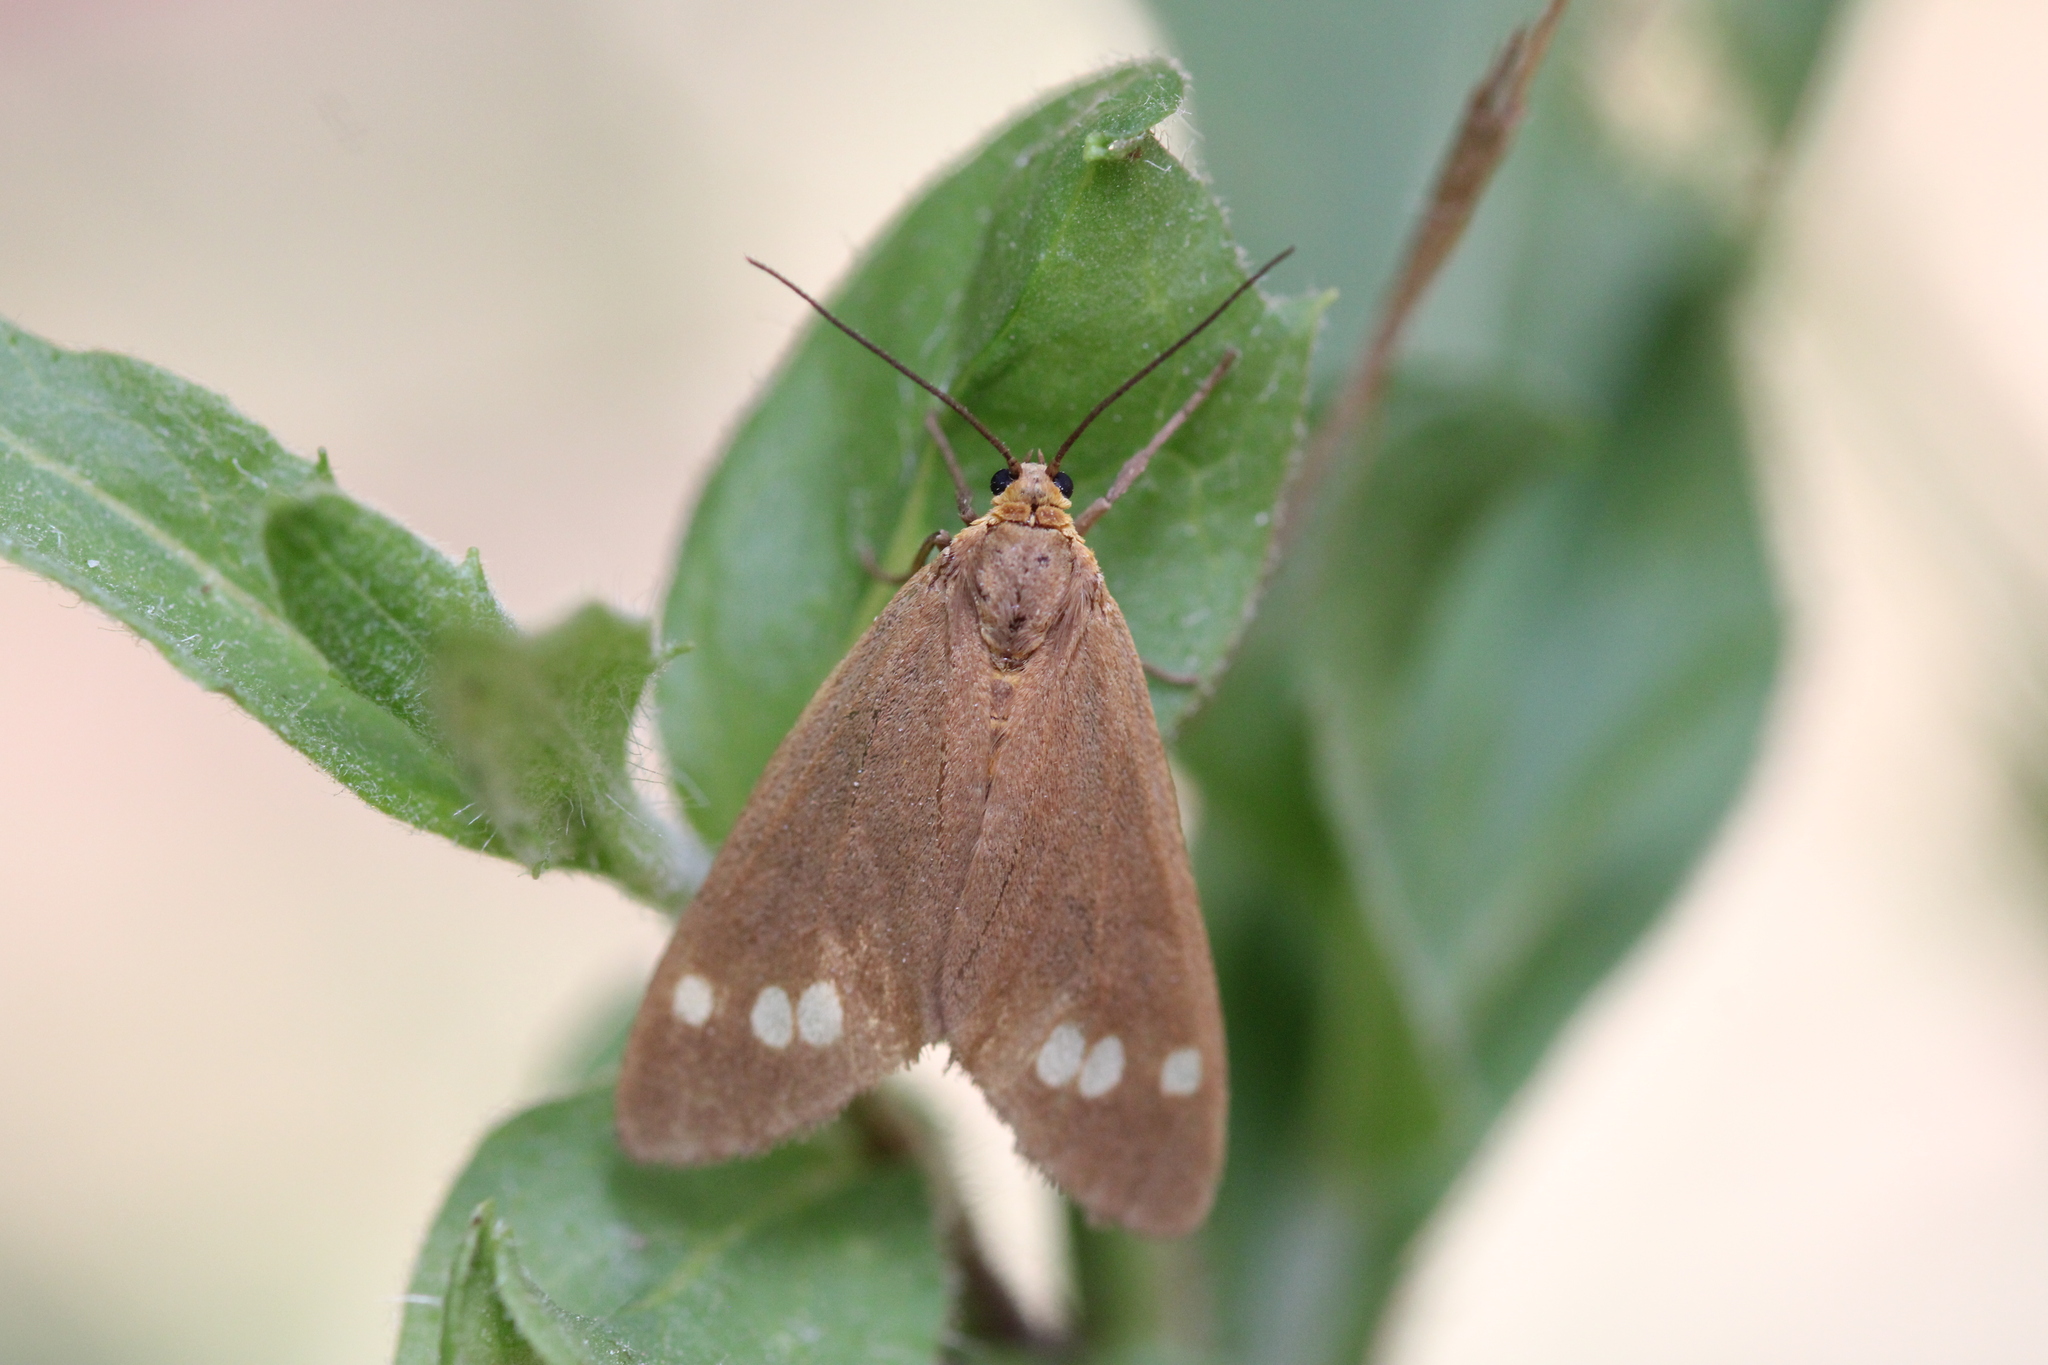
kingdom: Animalia
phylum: Arthropoda
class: Insecta
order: Lepidoptera
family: Erebidae
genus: Dysauxes
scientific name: Dysauxes ancilla
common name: The handmaid
